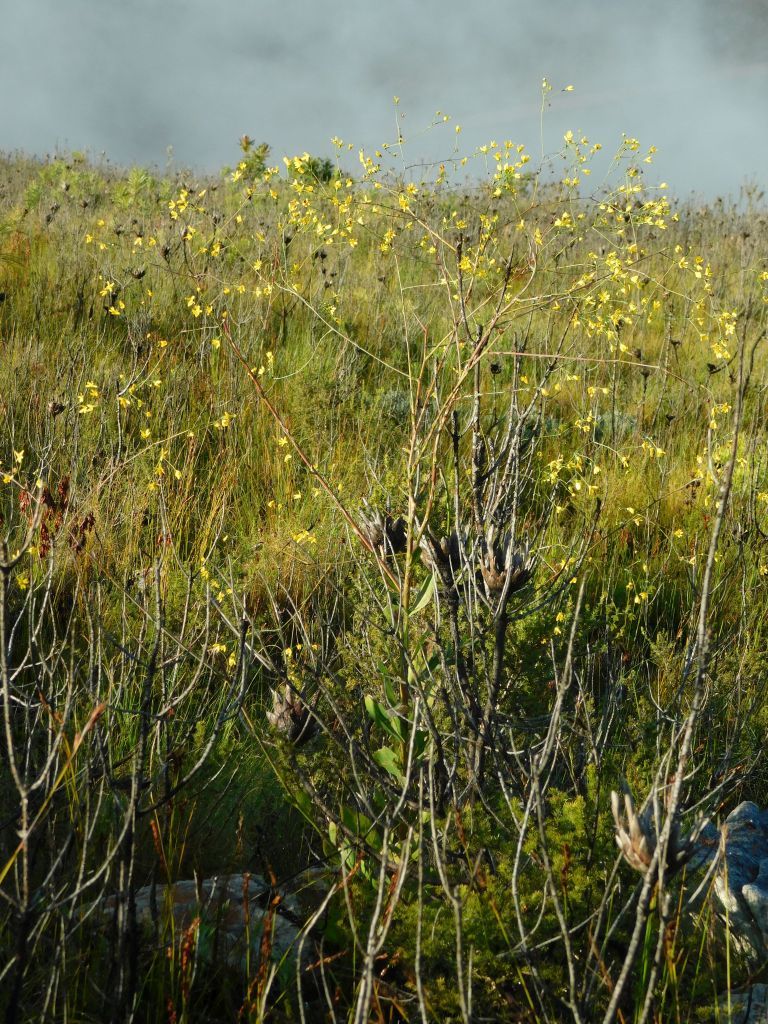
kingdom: Plantae
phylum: Tracheophyta
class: Magnoliopsida
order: Asterales
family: Asteraceae
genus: Othonna
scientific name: Othonna quinquedentata
